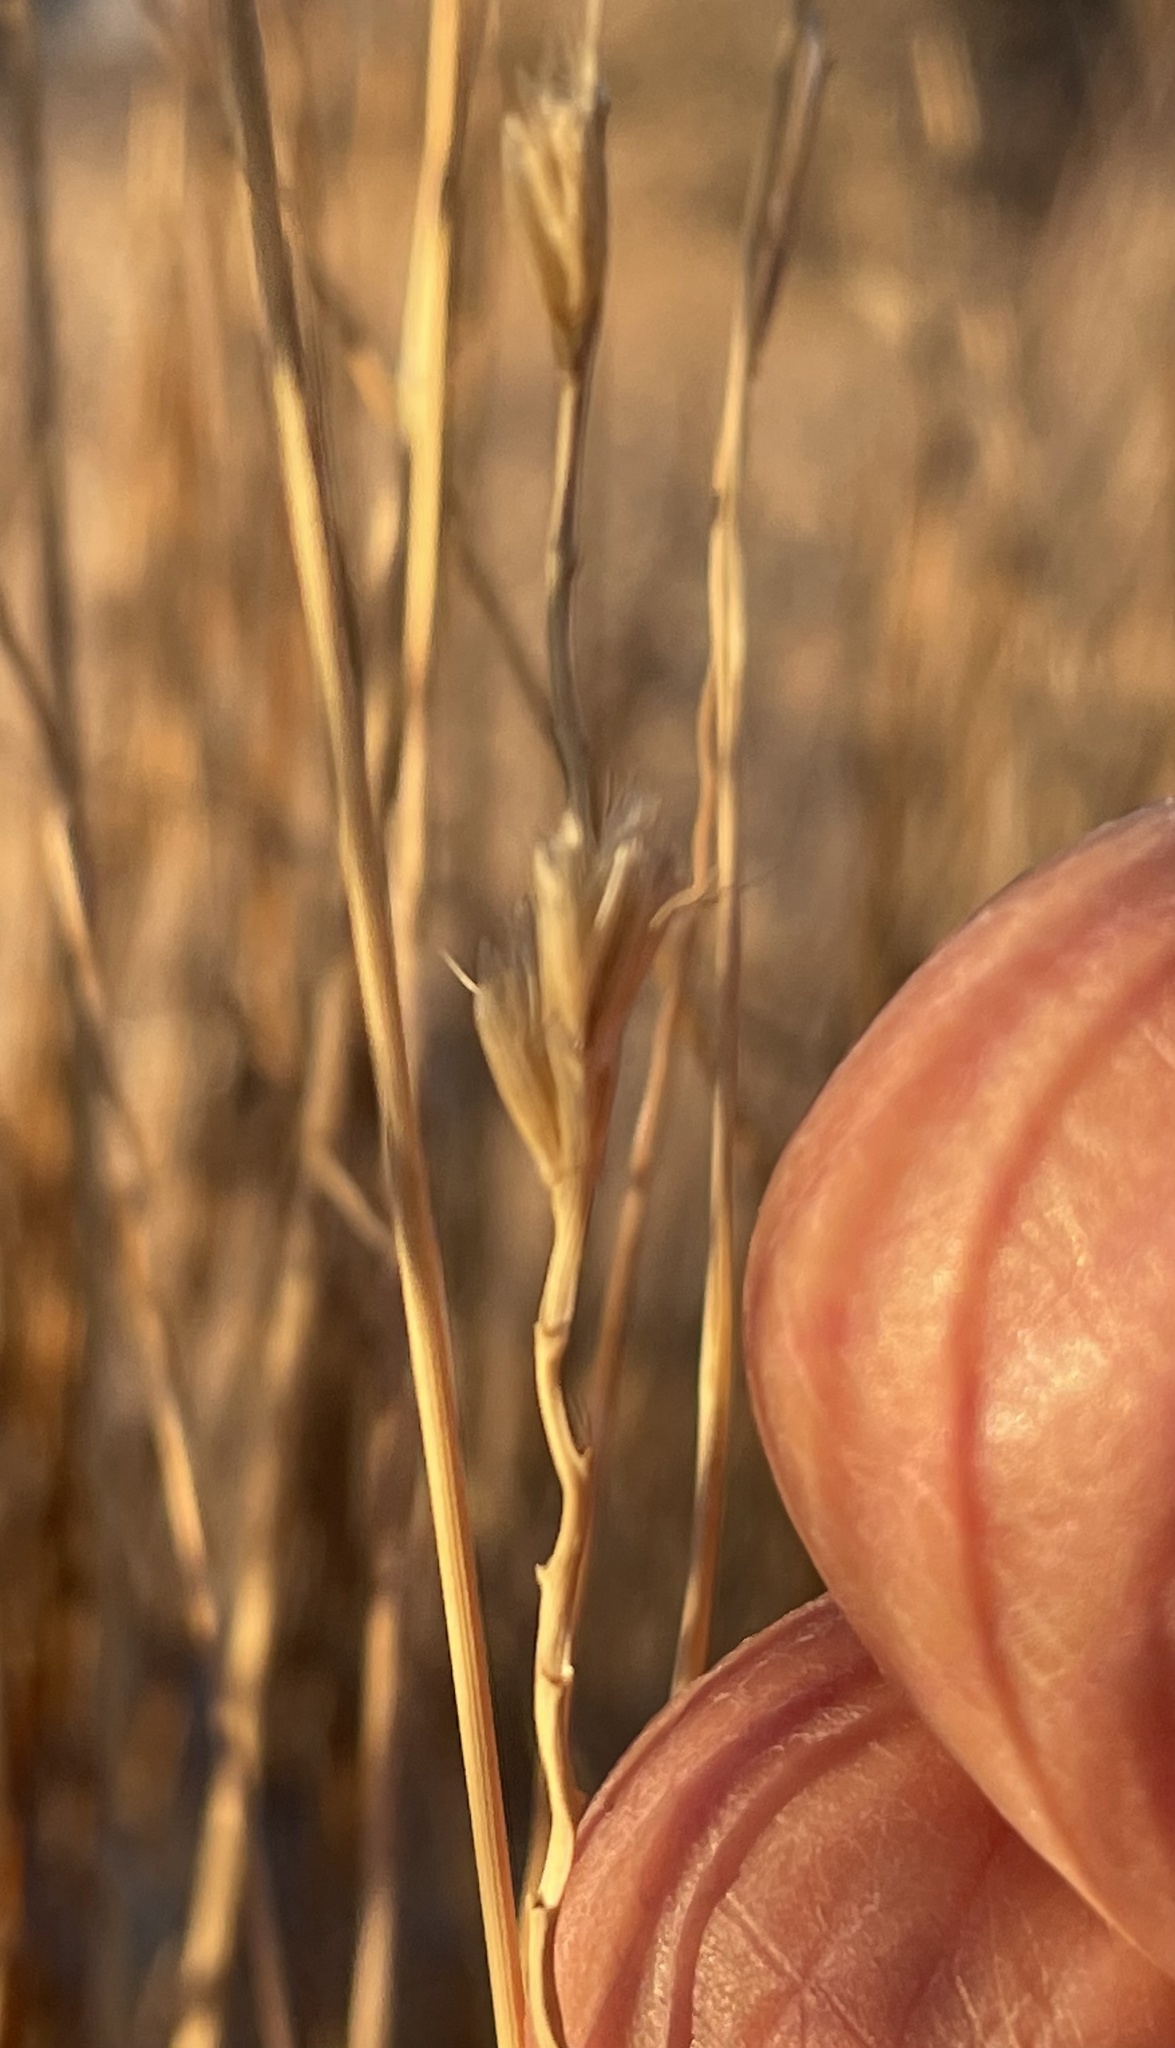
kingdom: Plantae
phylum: Tracheophyta
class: Liliopsida
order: Poales
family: Poaceae
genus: Hilaria
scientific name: Hilaria rigida
